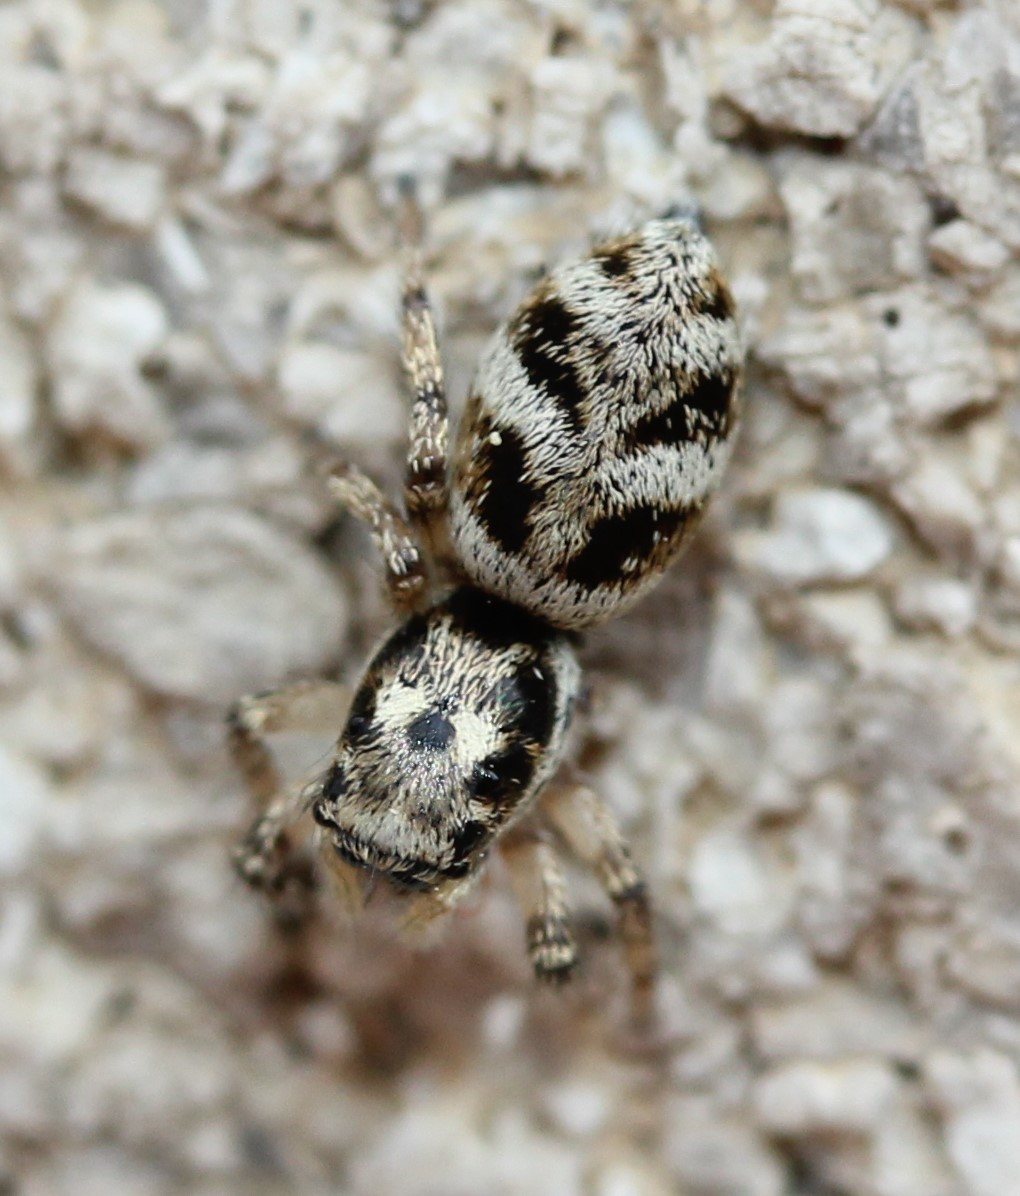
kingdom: Animalia
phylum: Arthropoda
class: Arachnida
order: Araneae
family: Salticidae
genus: Salticus
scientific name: Salticus scenicus
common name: Zebra jumper
